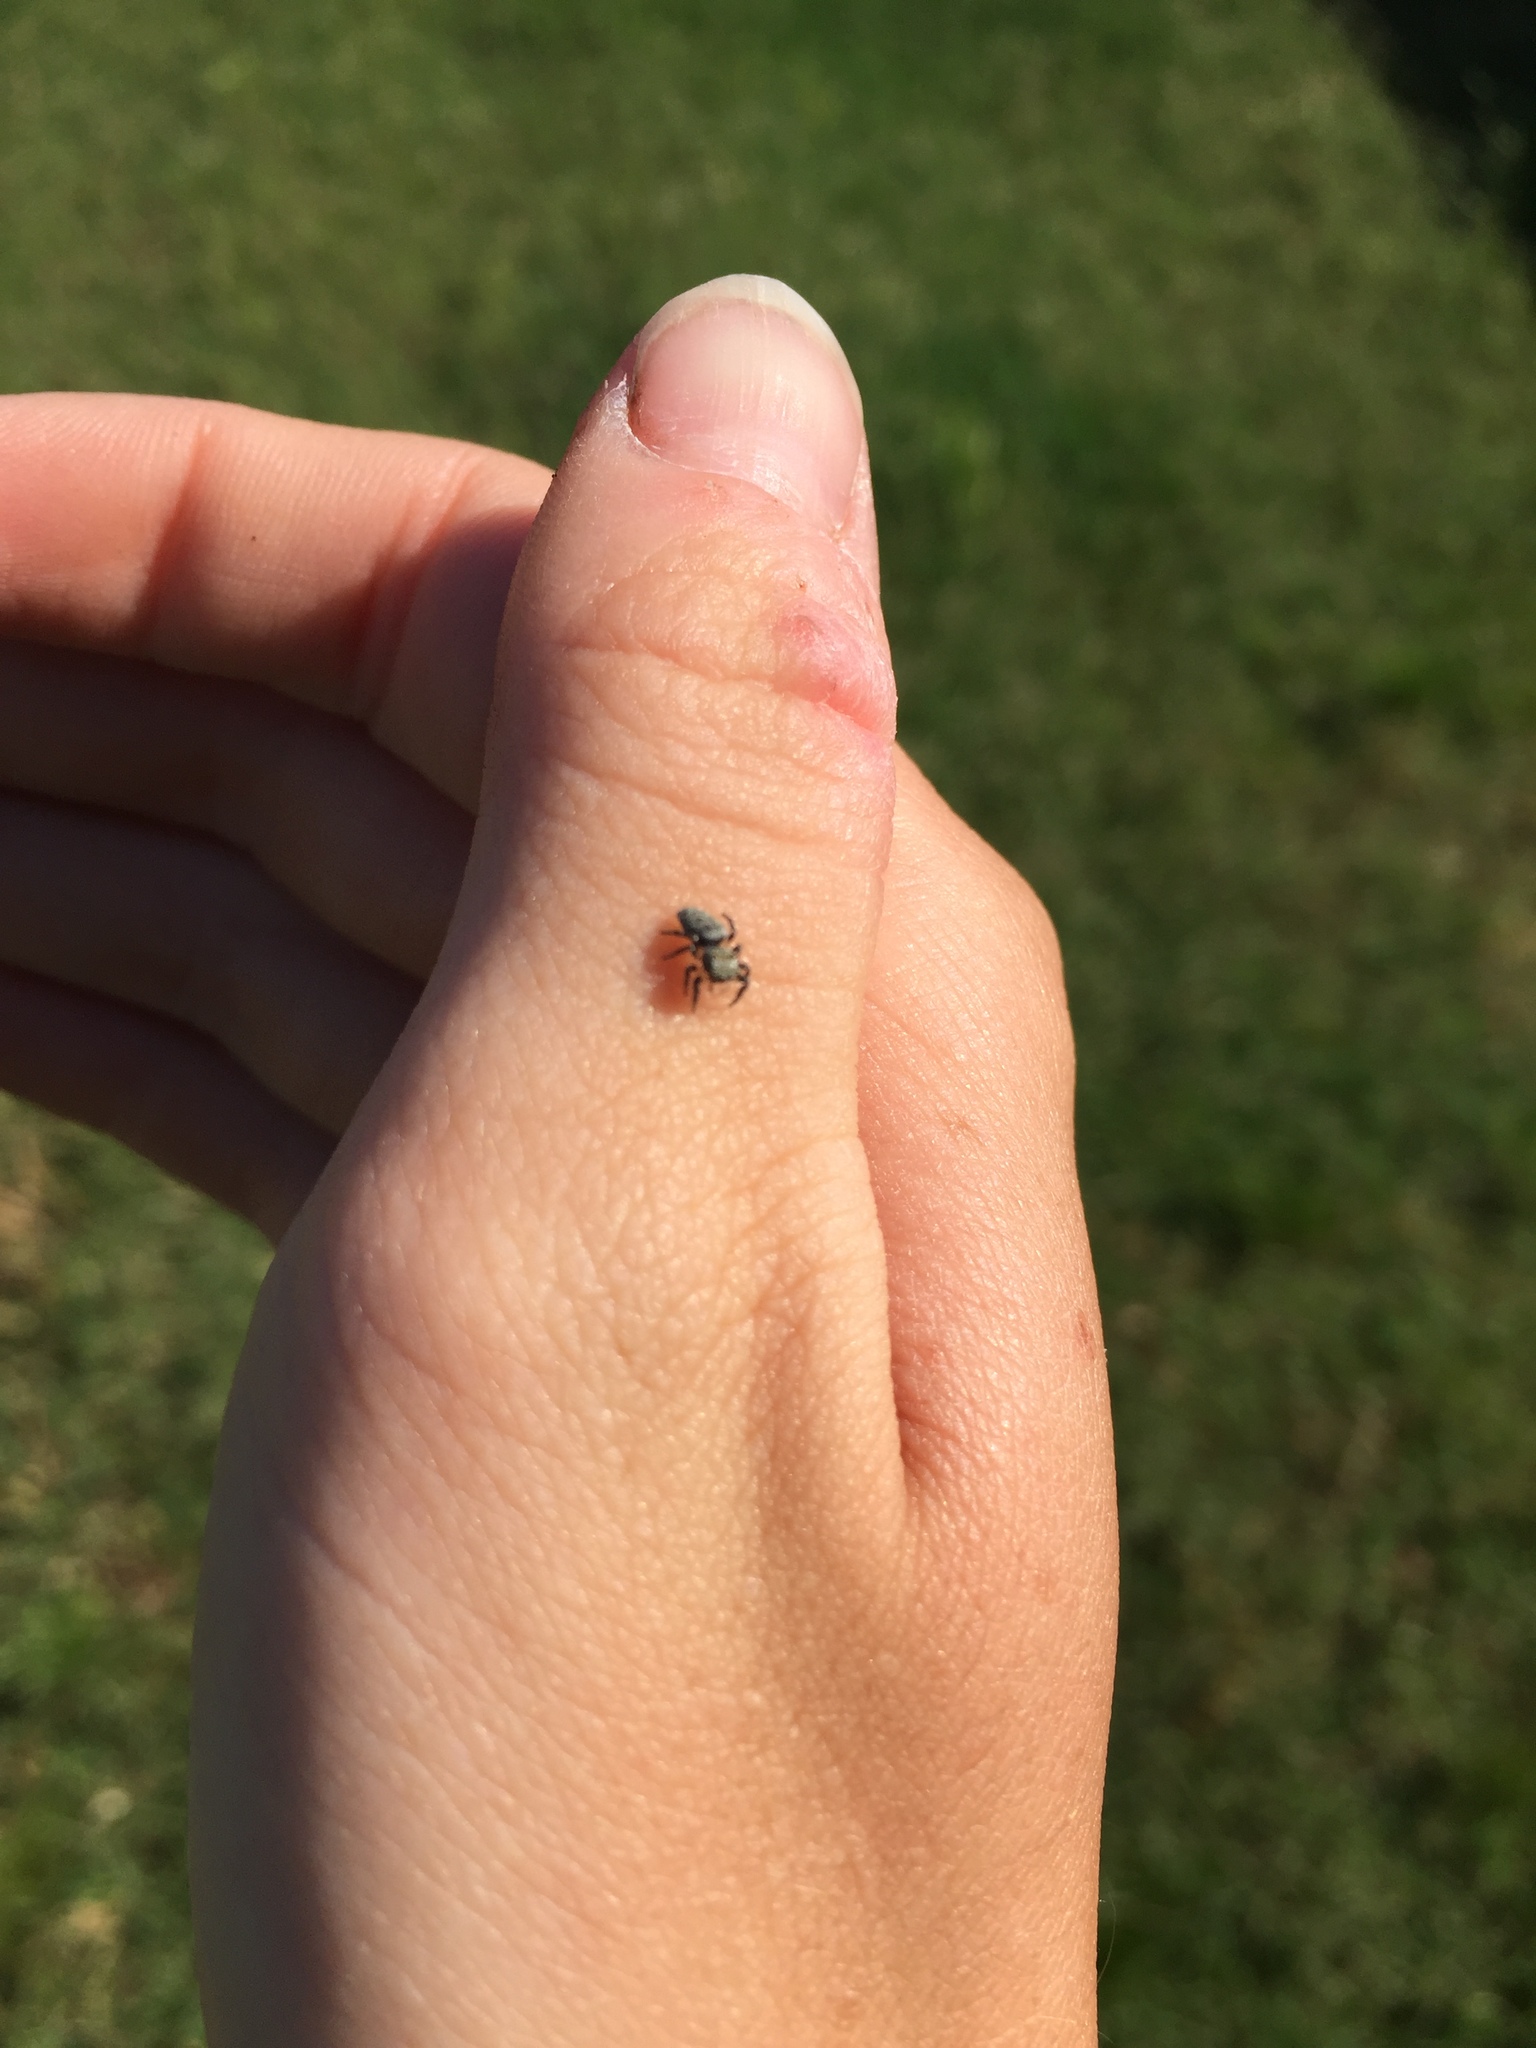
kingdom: Animalia
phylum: Arthropoda
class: Arachnida
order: Araneae
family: Salticidae
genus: Pelegrina
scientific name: Pelegrina galathea
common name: Jumping spiders
